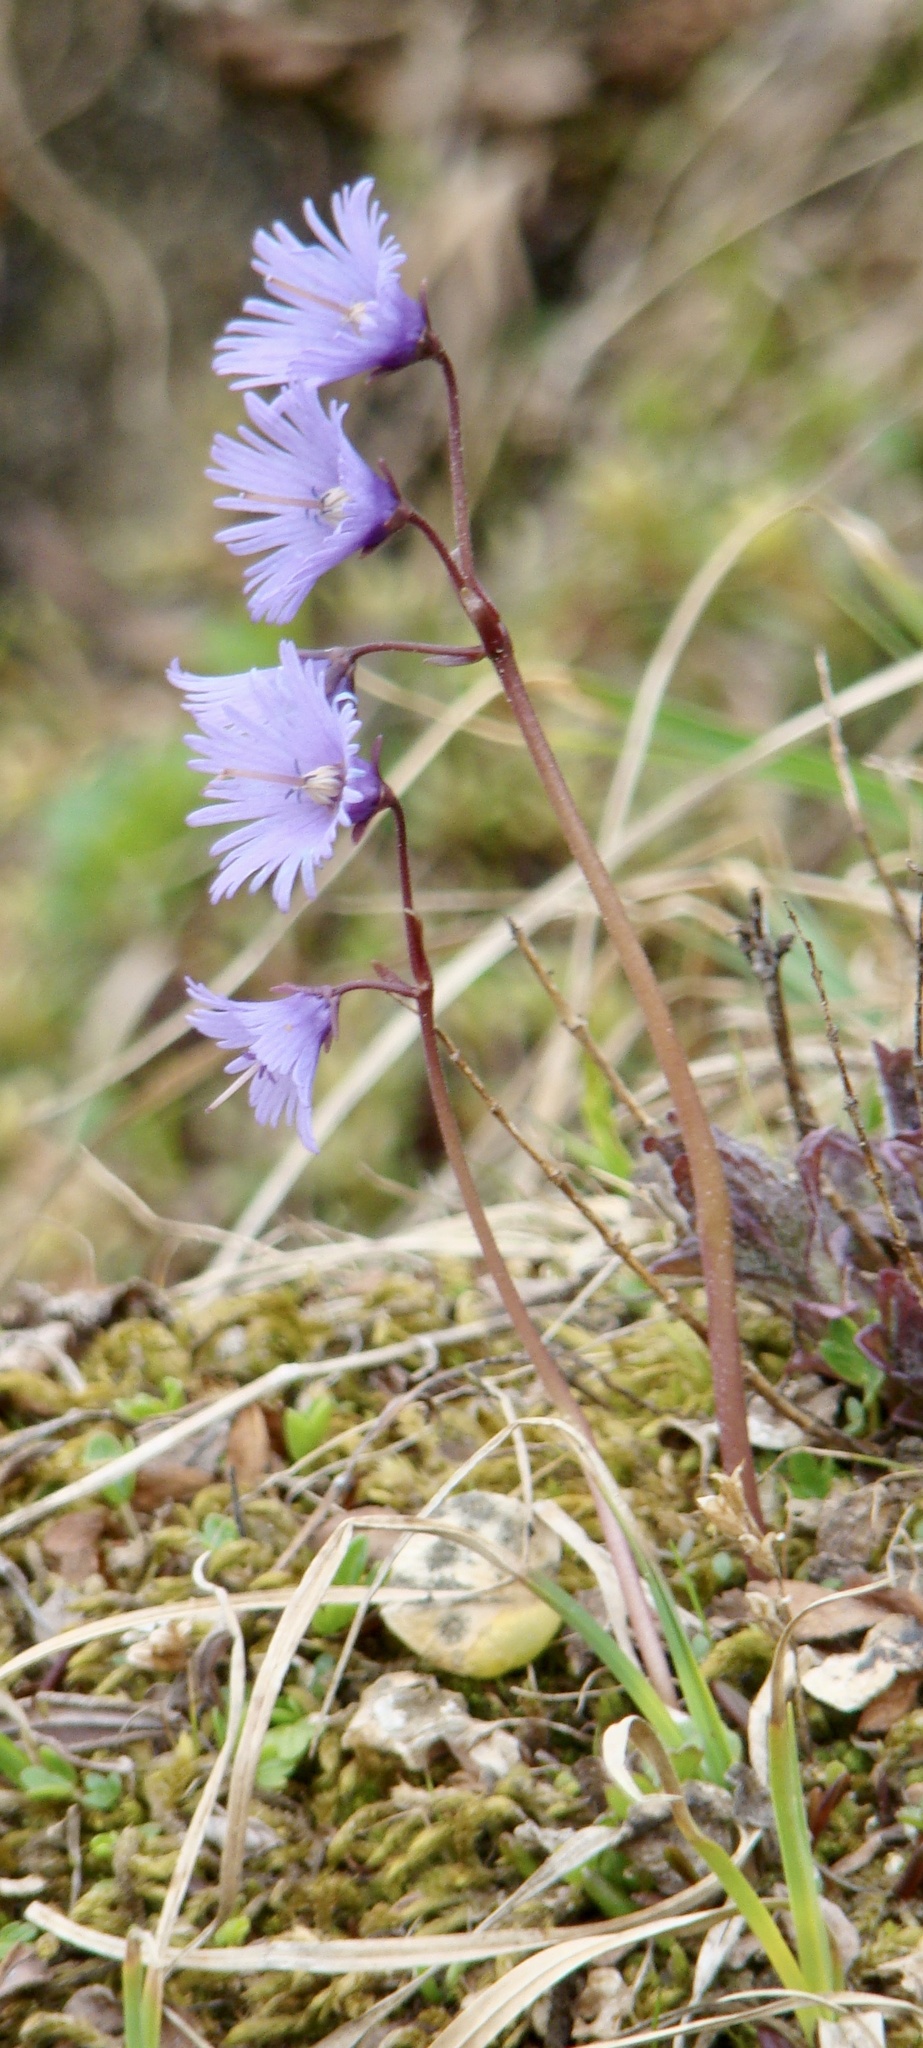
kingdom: Plantae
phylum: Tracheophyta
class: Magnoliopsida
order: Ericales
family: Primulaceae
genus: Soldanella
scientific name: Soldanella alpina
